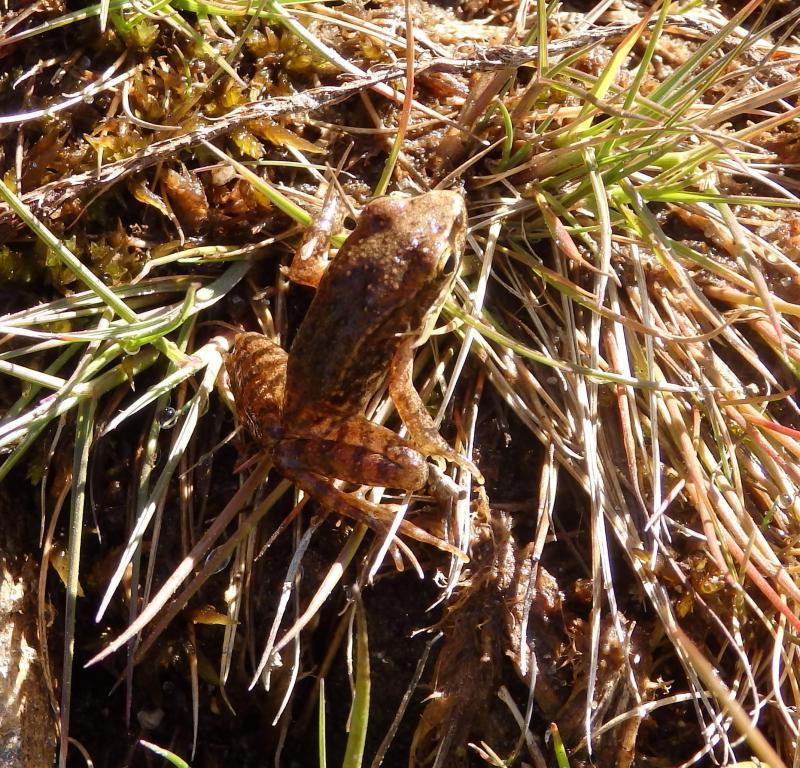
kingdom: Animalia
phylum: Chordata
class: Amphibia
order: Anura
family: Ranidae
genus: Rana
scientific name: Rana iberica
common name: Iberian frog
